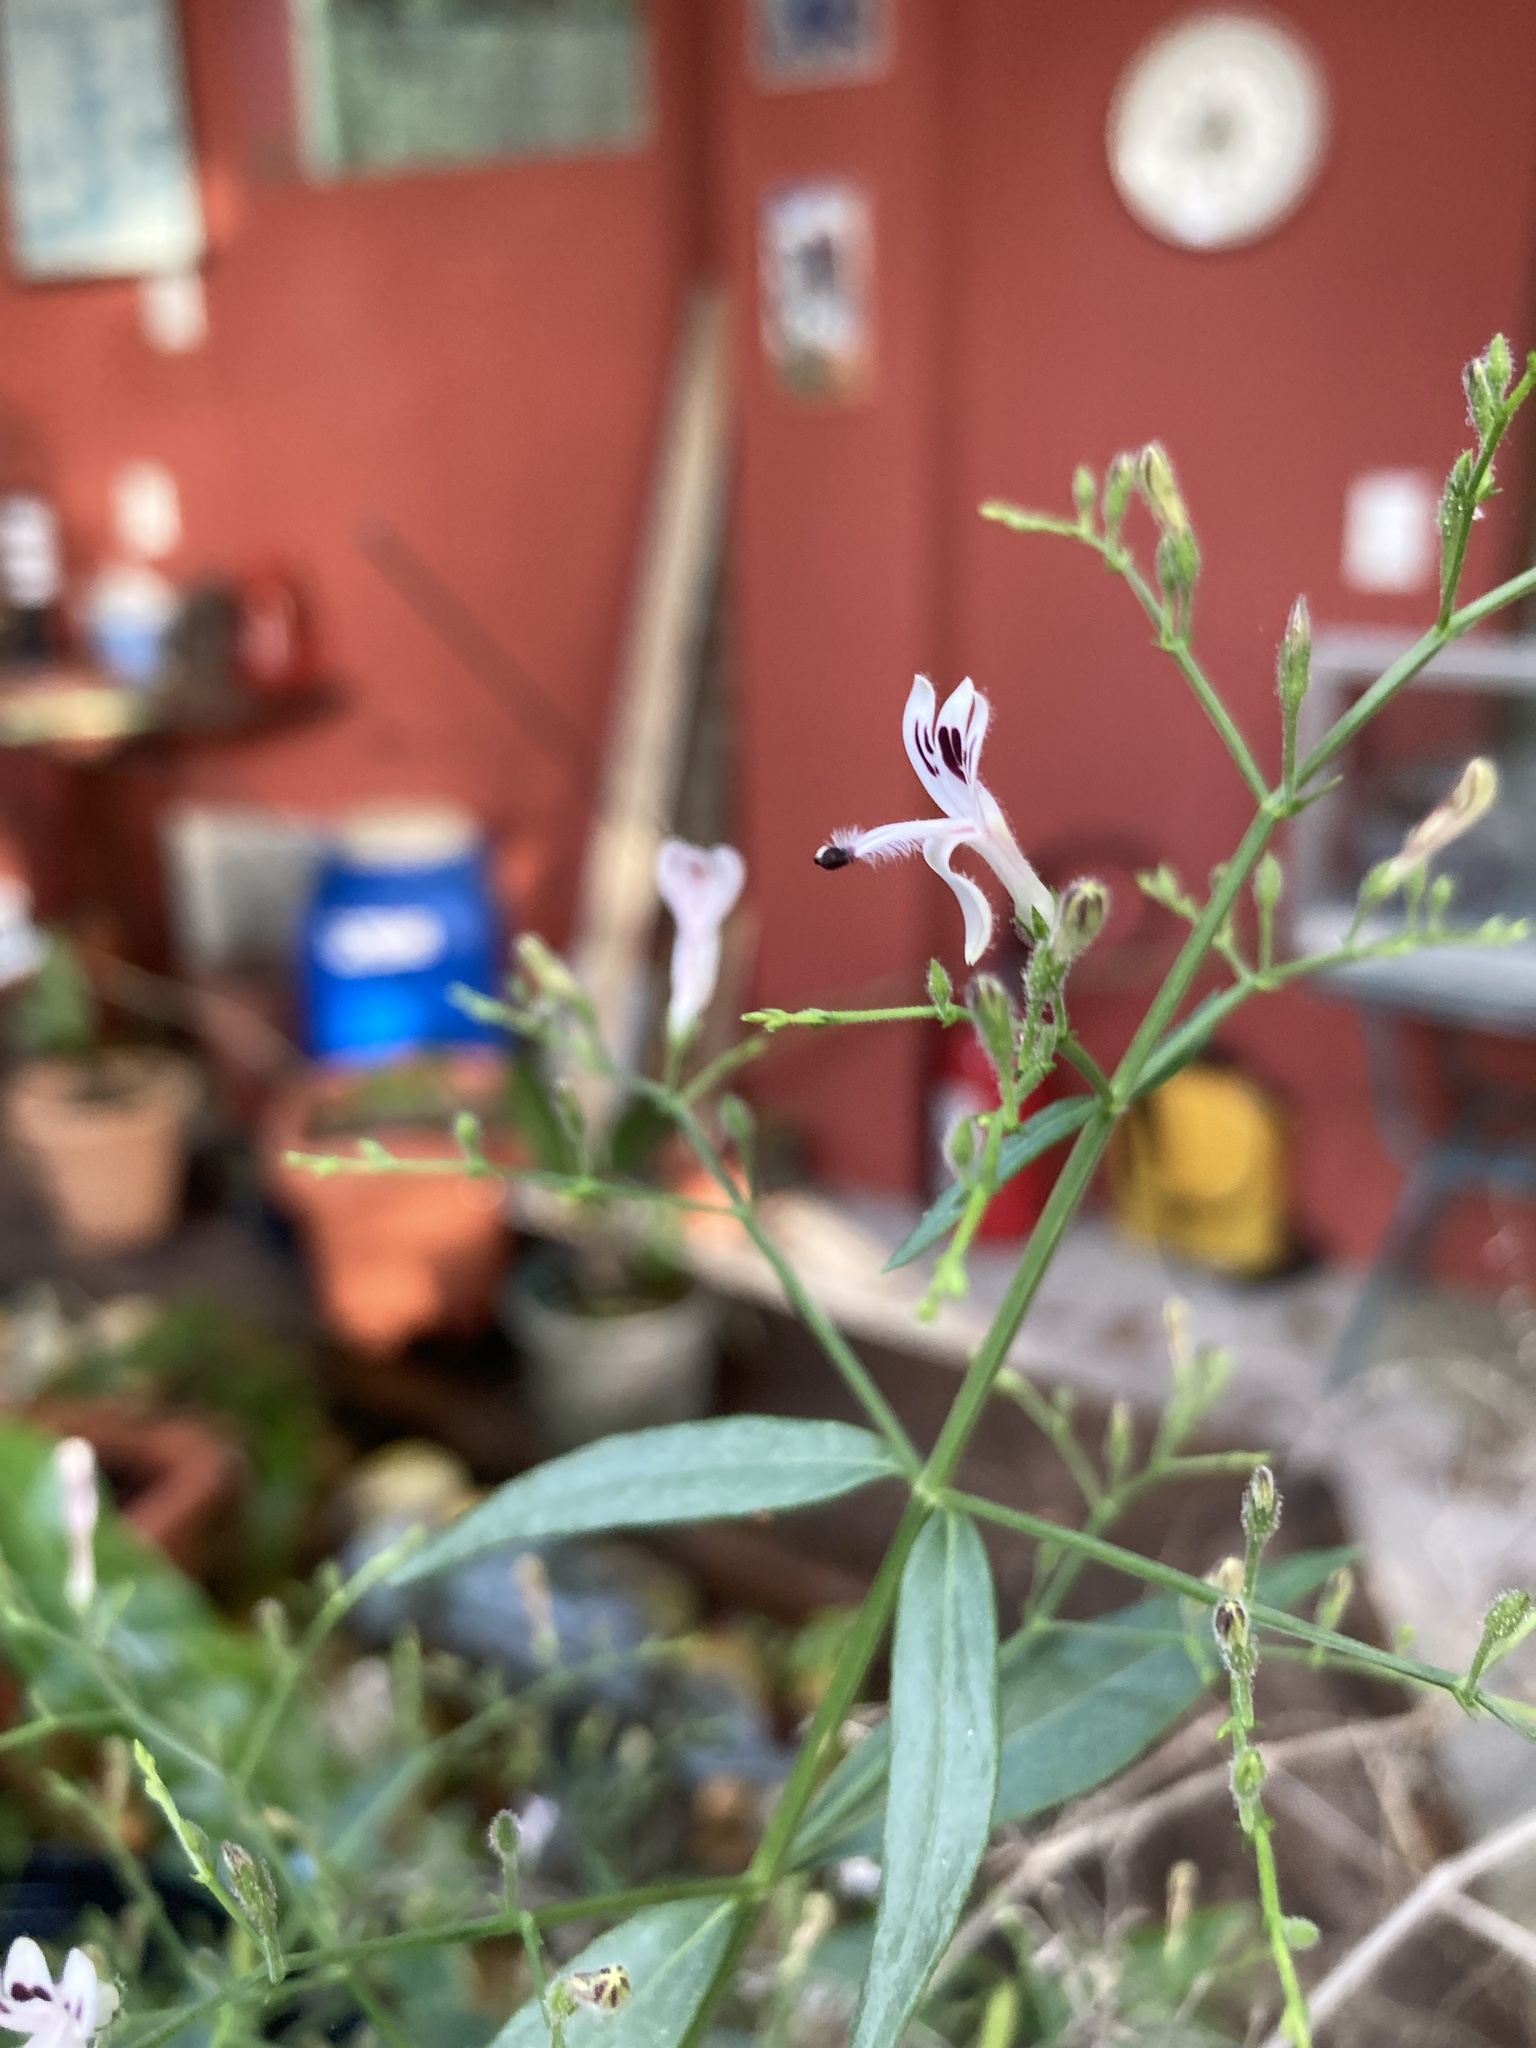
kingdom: Plantae
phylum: Tracheophyta
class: Magnoliopsida
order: Lamiales
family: Acanthaceae
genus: Andrographis
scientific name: Andrographis paniculata
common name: Green chireta
